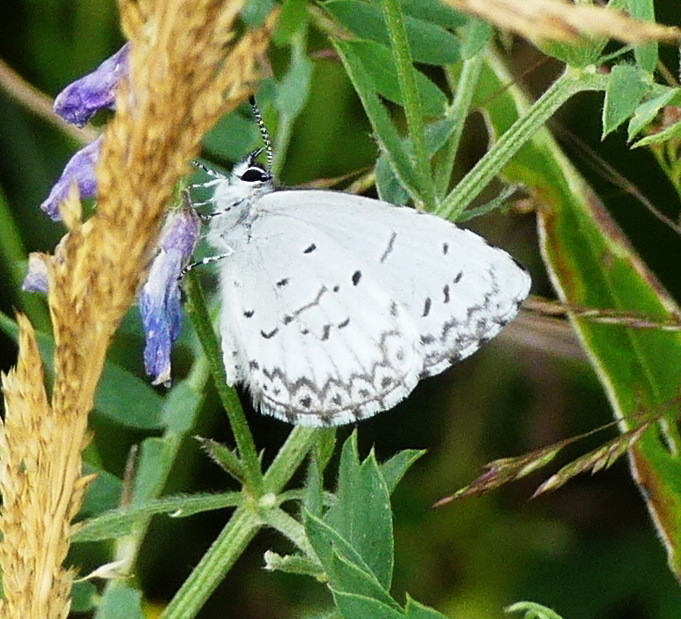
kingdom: Animalia
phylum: Arthropoda
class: Insecta
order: Lepidoptera
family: Lycaenidae
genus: Celastrina
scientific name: Celastrina lucia
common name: Lucia azure
